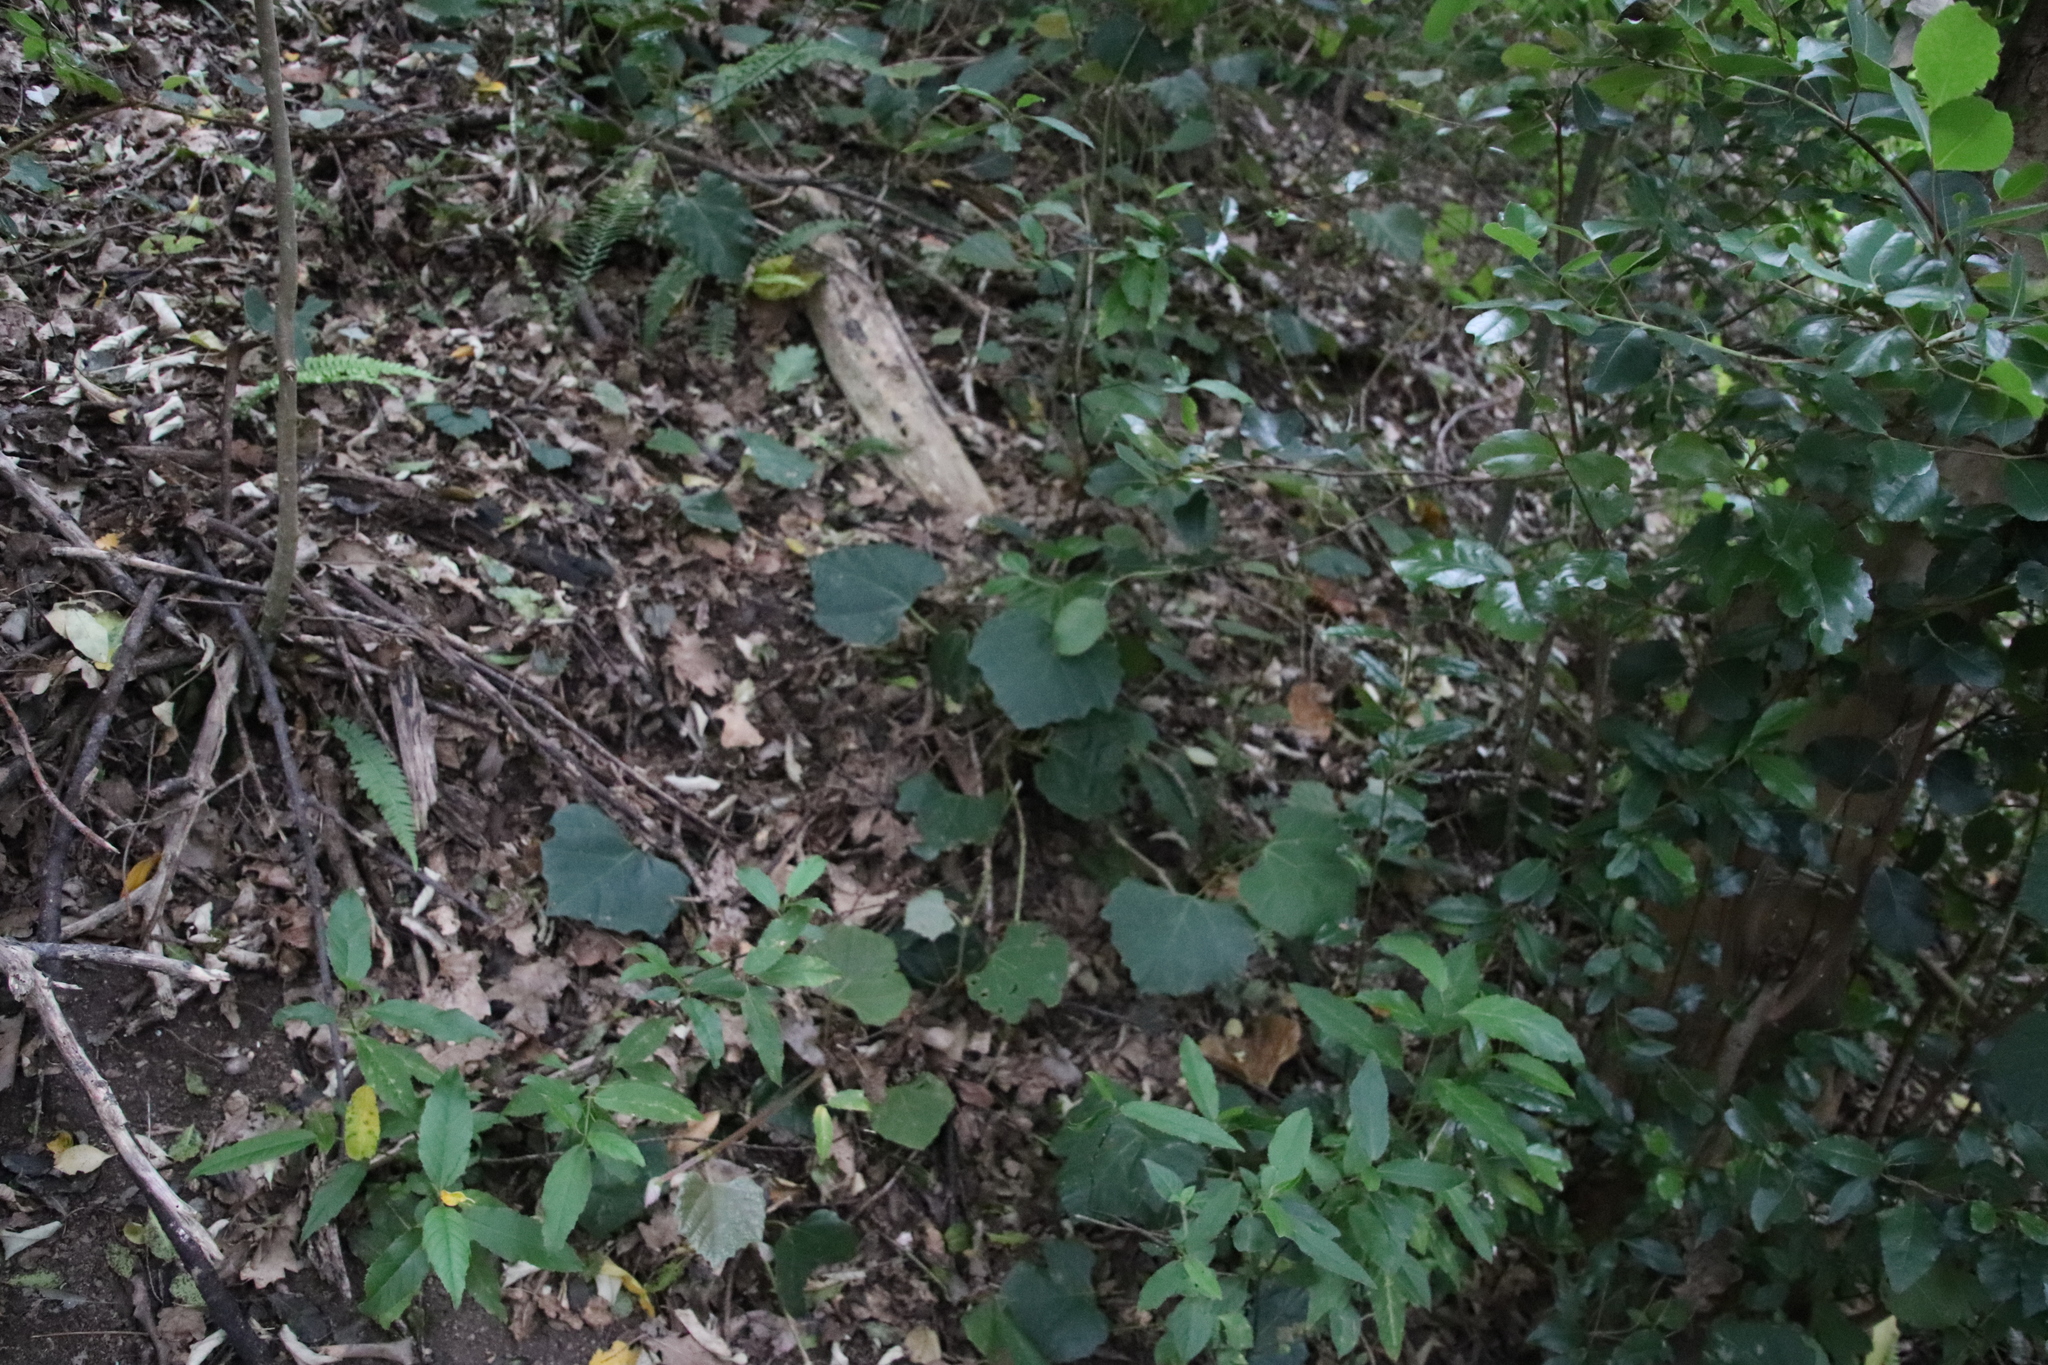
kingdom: Plantae
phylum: Tracheophyta
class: Magnoliopsida
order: Vitales
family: Vitaceae
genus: Rhoicissus
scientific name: Rhoicissus tomentosa
